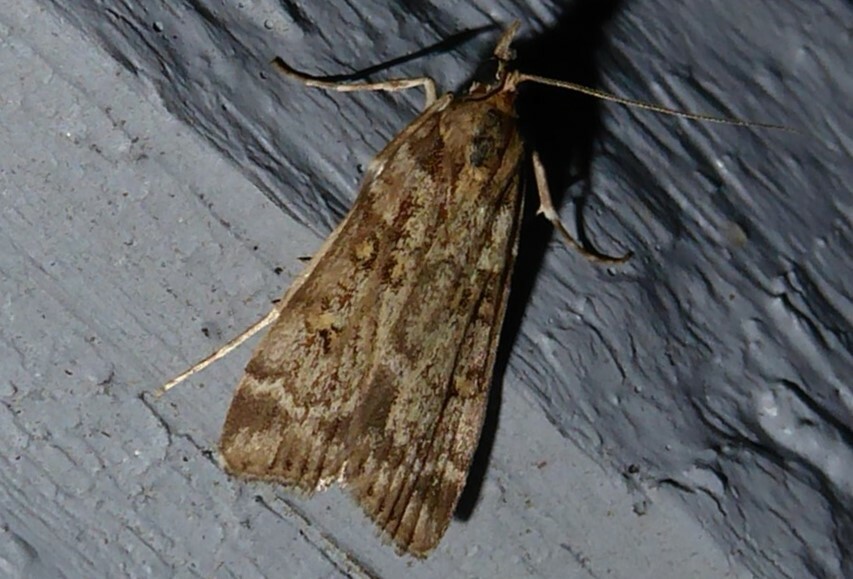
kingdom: Animalia
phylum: Arthropoda
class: Insecta
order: Lepidoptera
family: Crambidae
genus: Scoparia
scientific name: Scoparia tetracycla
